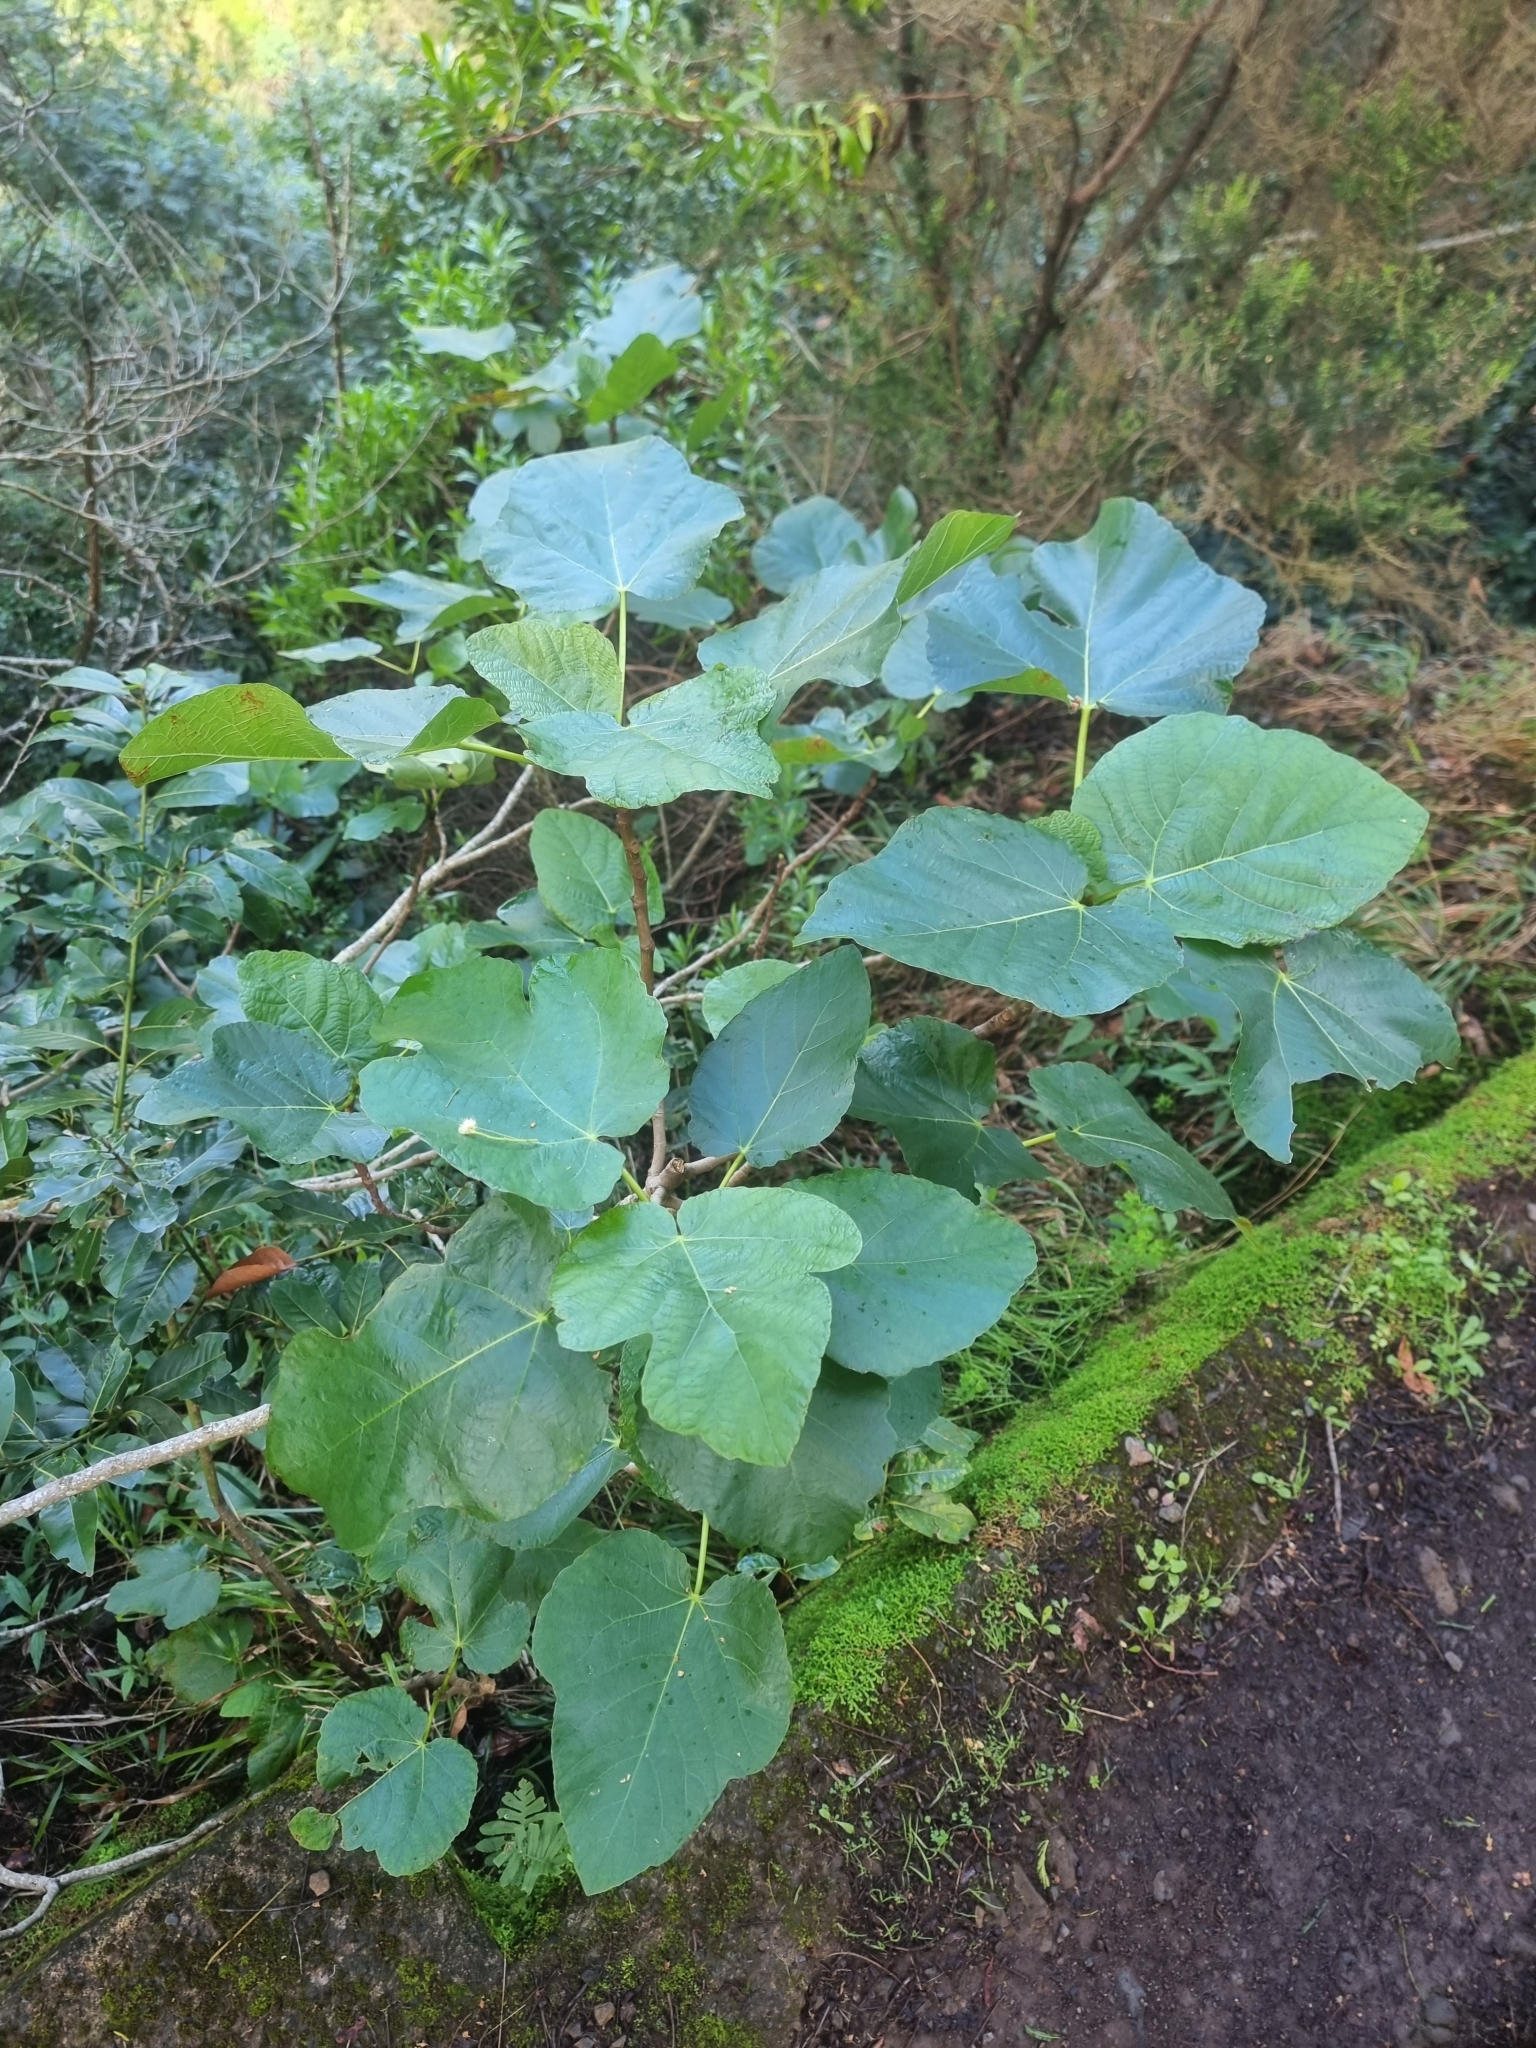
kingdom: Plantae
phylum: Tracheophyta
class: Magnoliopsida
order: Rosales
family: Moraceae
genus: Ficus
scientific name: Ficus carica
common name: Fig
